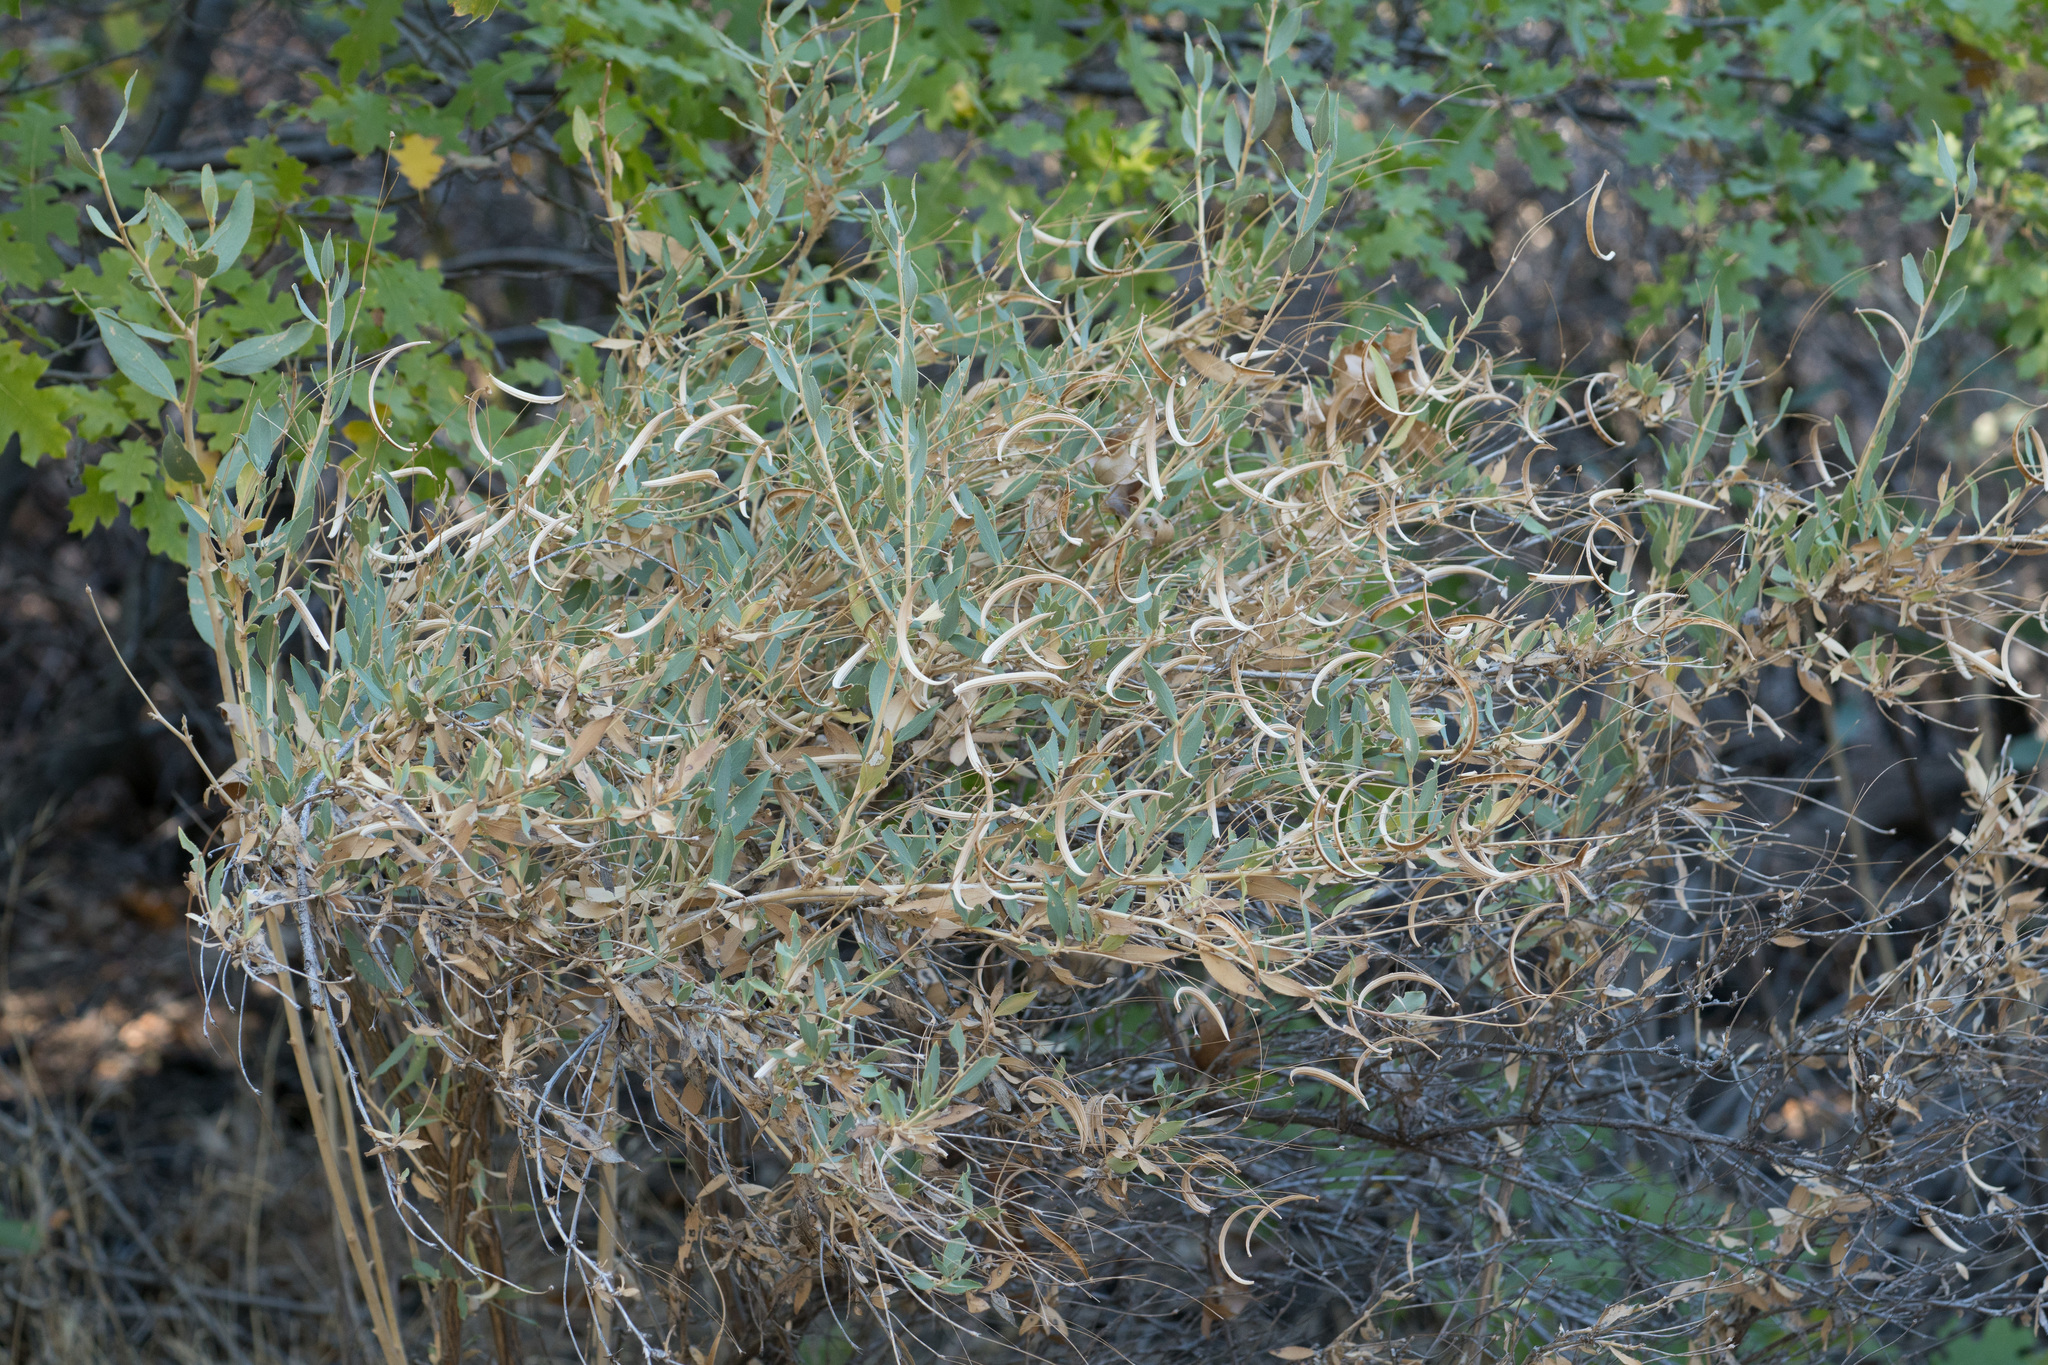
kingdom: Plantae
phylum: Tracheophyta
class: Magnoliopsida
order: Ranunculales
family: Papaveraceae
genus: Dendromecon
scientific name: Dendromecon rigida
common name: Tree poppy
